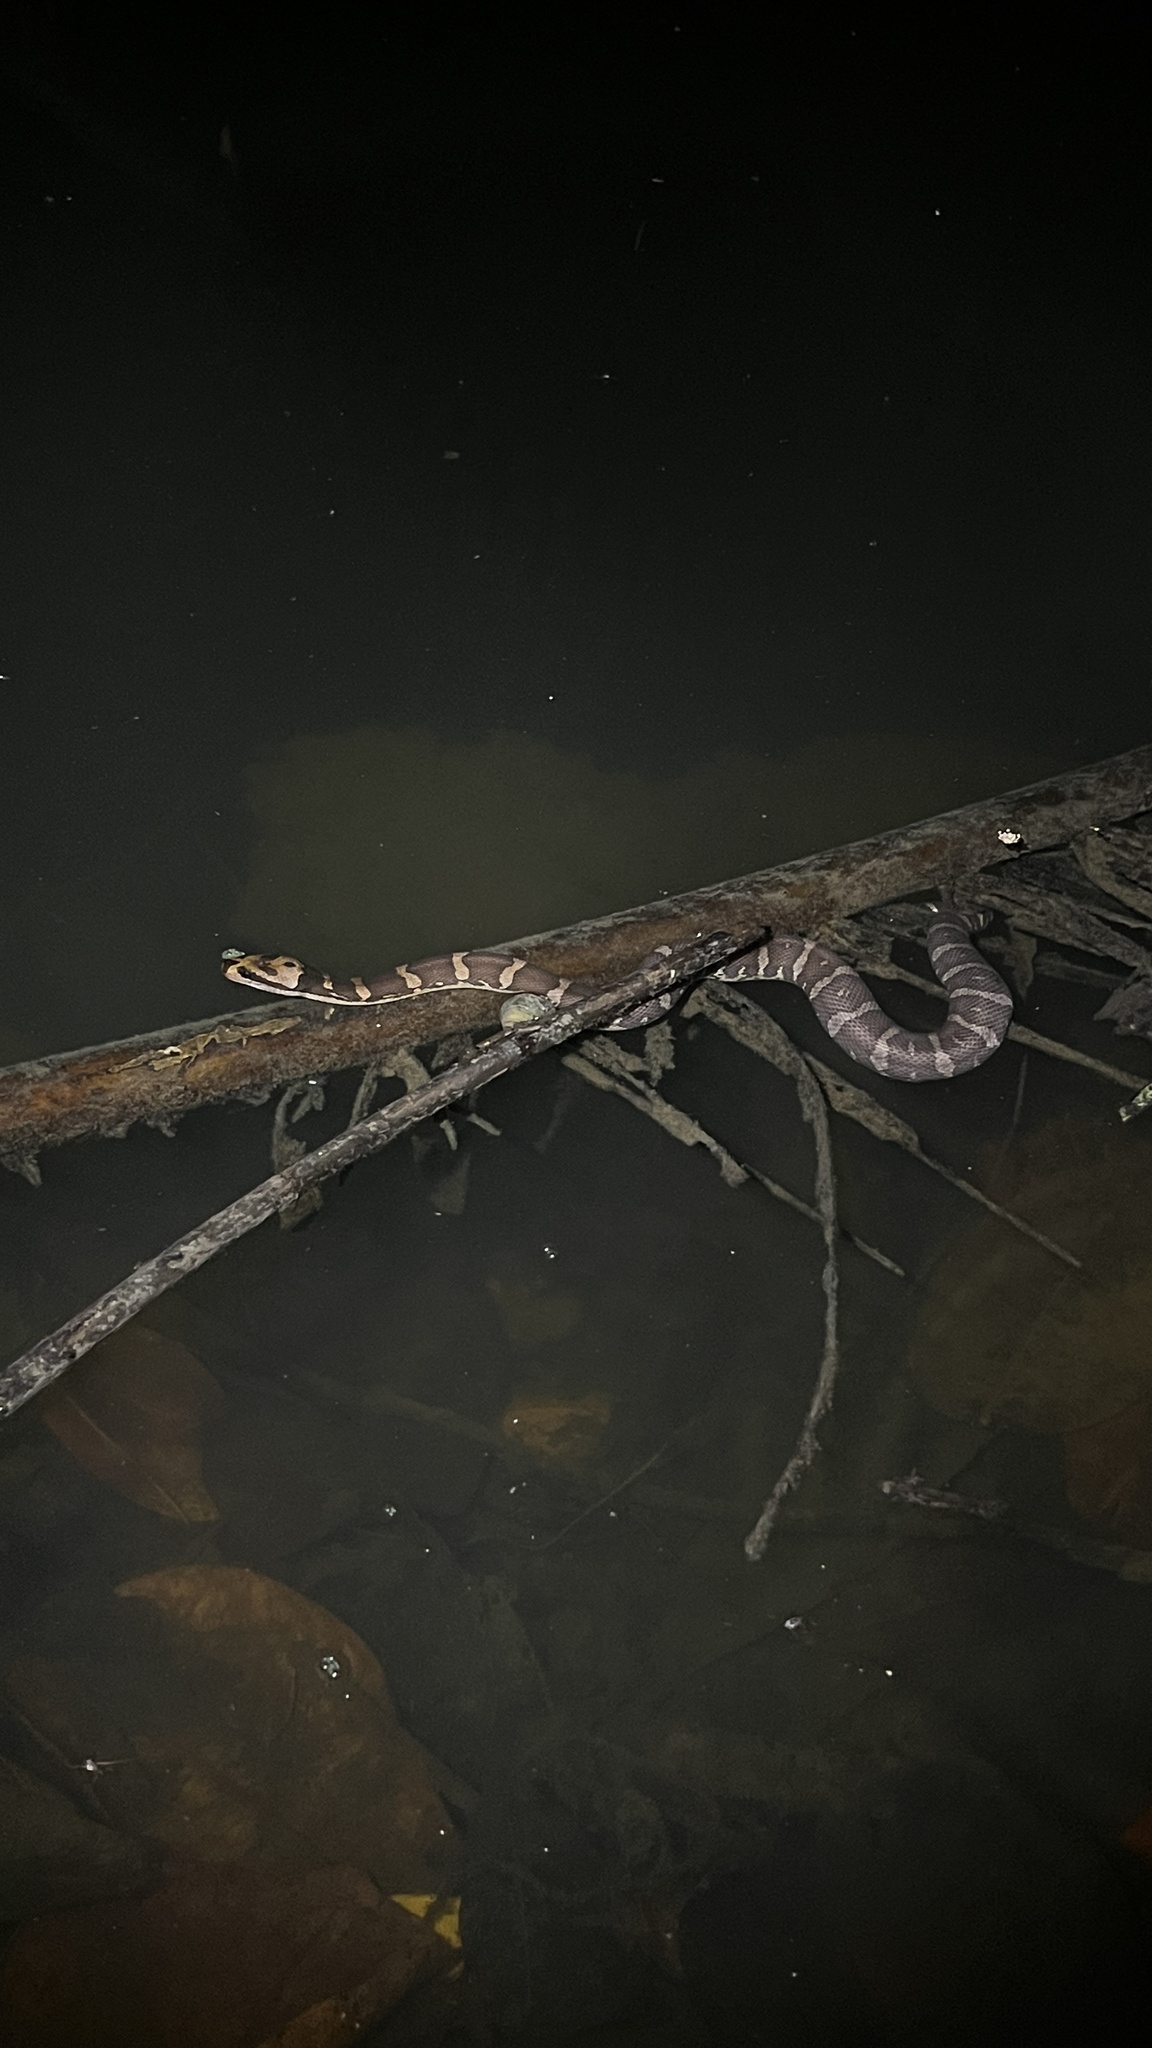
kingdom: Animalia
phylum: Chordata
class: Squamata
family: Homalopsidae
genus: Homalopsis
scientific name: Homalopsis mereljcoxi
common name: Jack’s water snake
